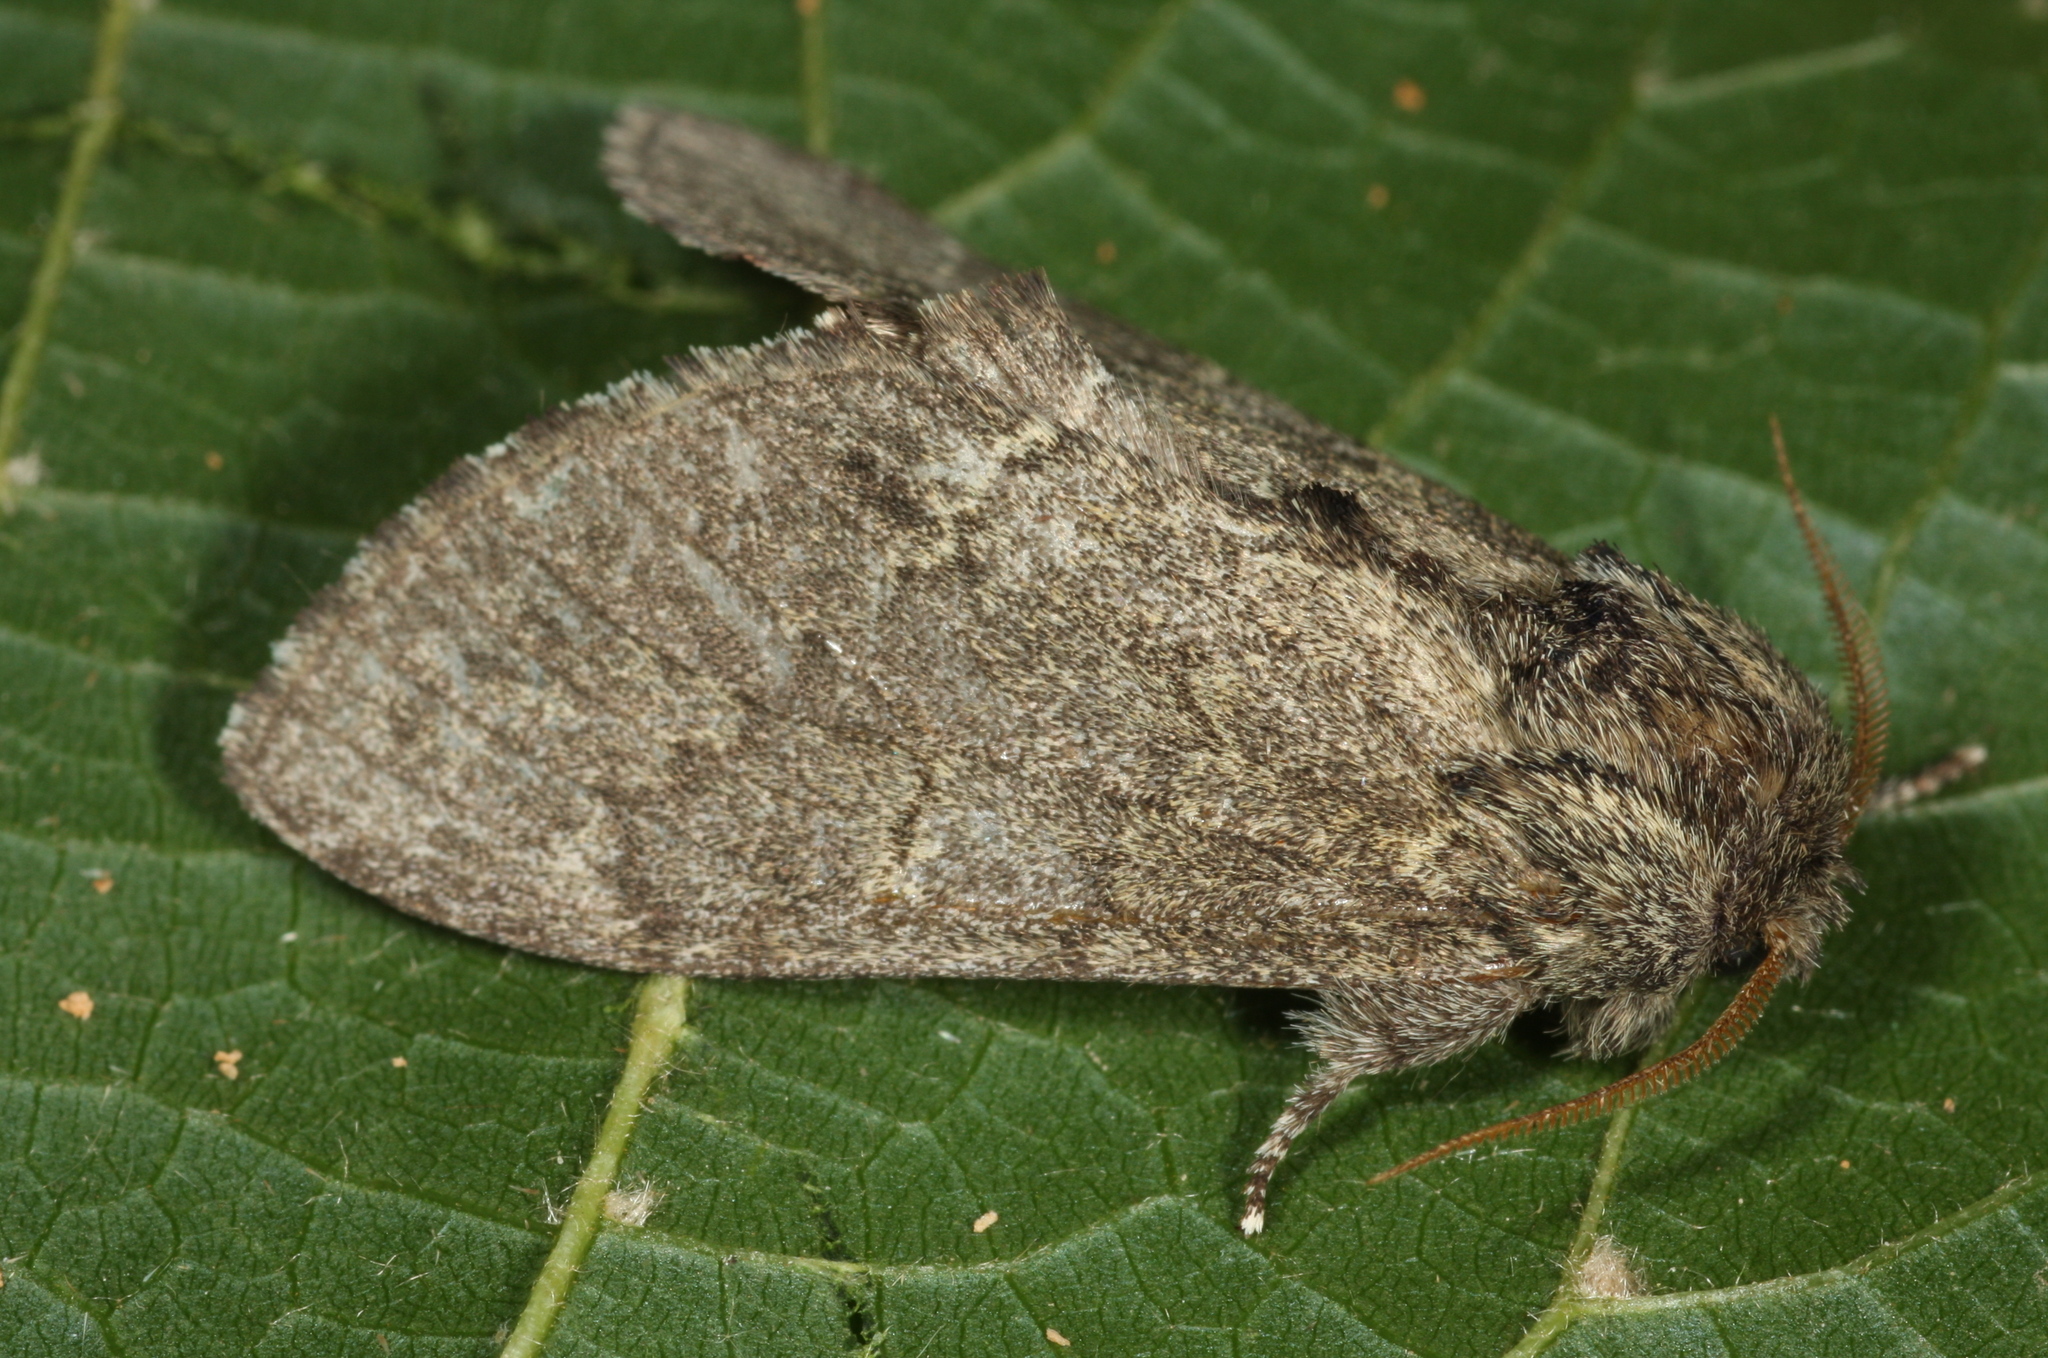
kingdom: Animalia
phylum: Arthropoda
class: Insecta
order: Lepidoptera
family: Notodontidae
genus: Notodonta
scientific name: Notodonta torva
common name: Large dark prominent
